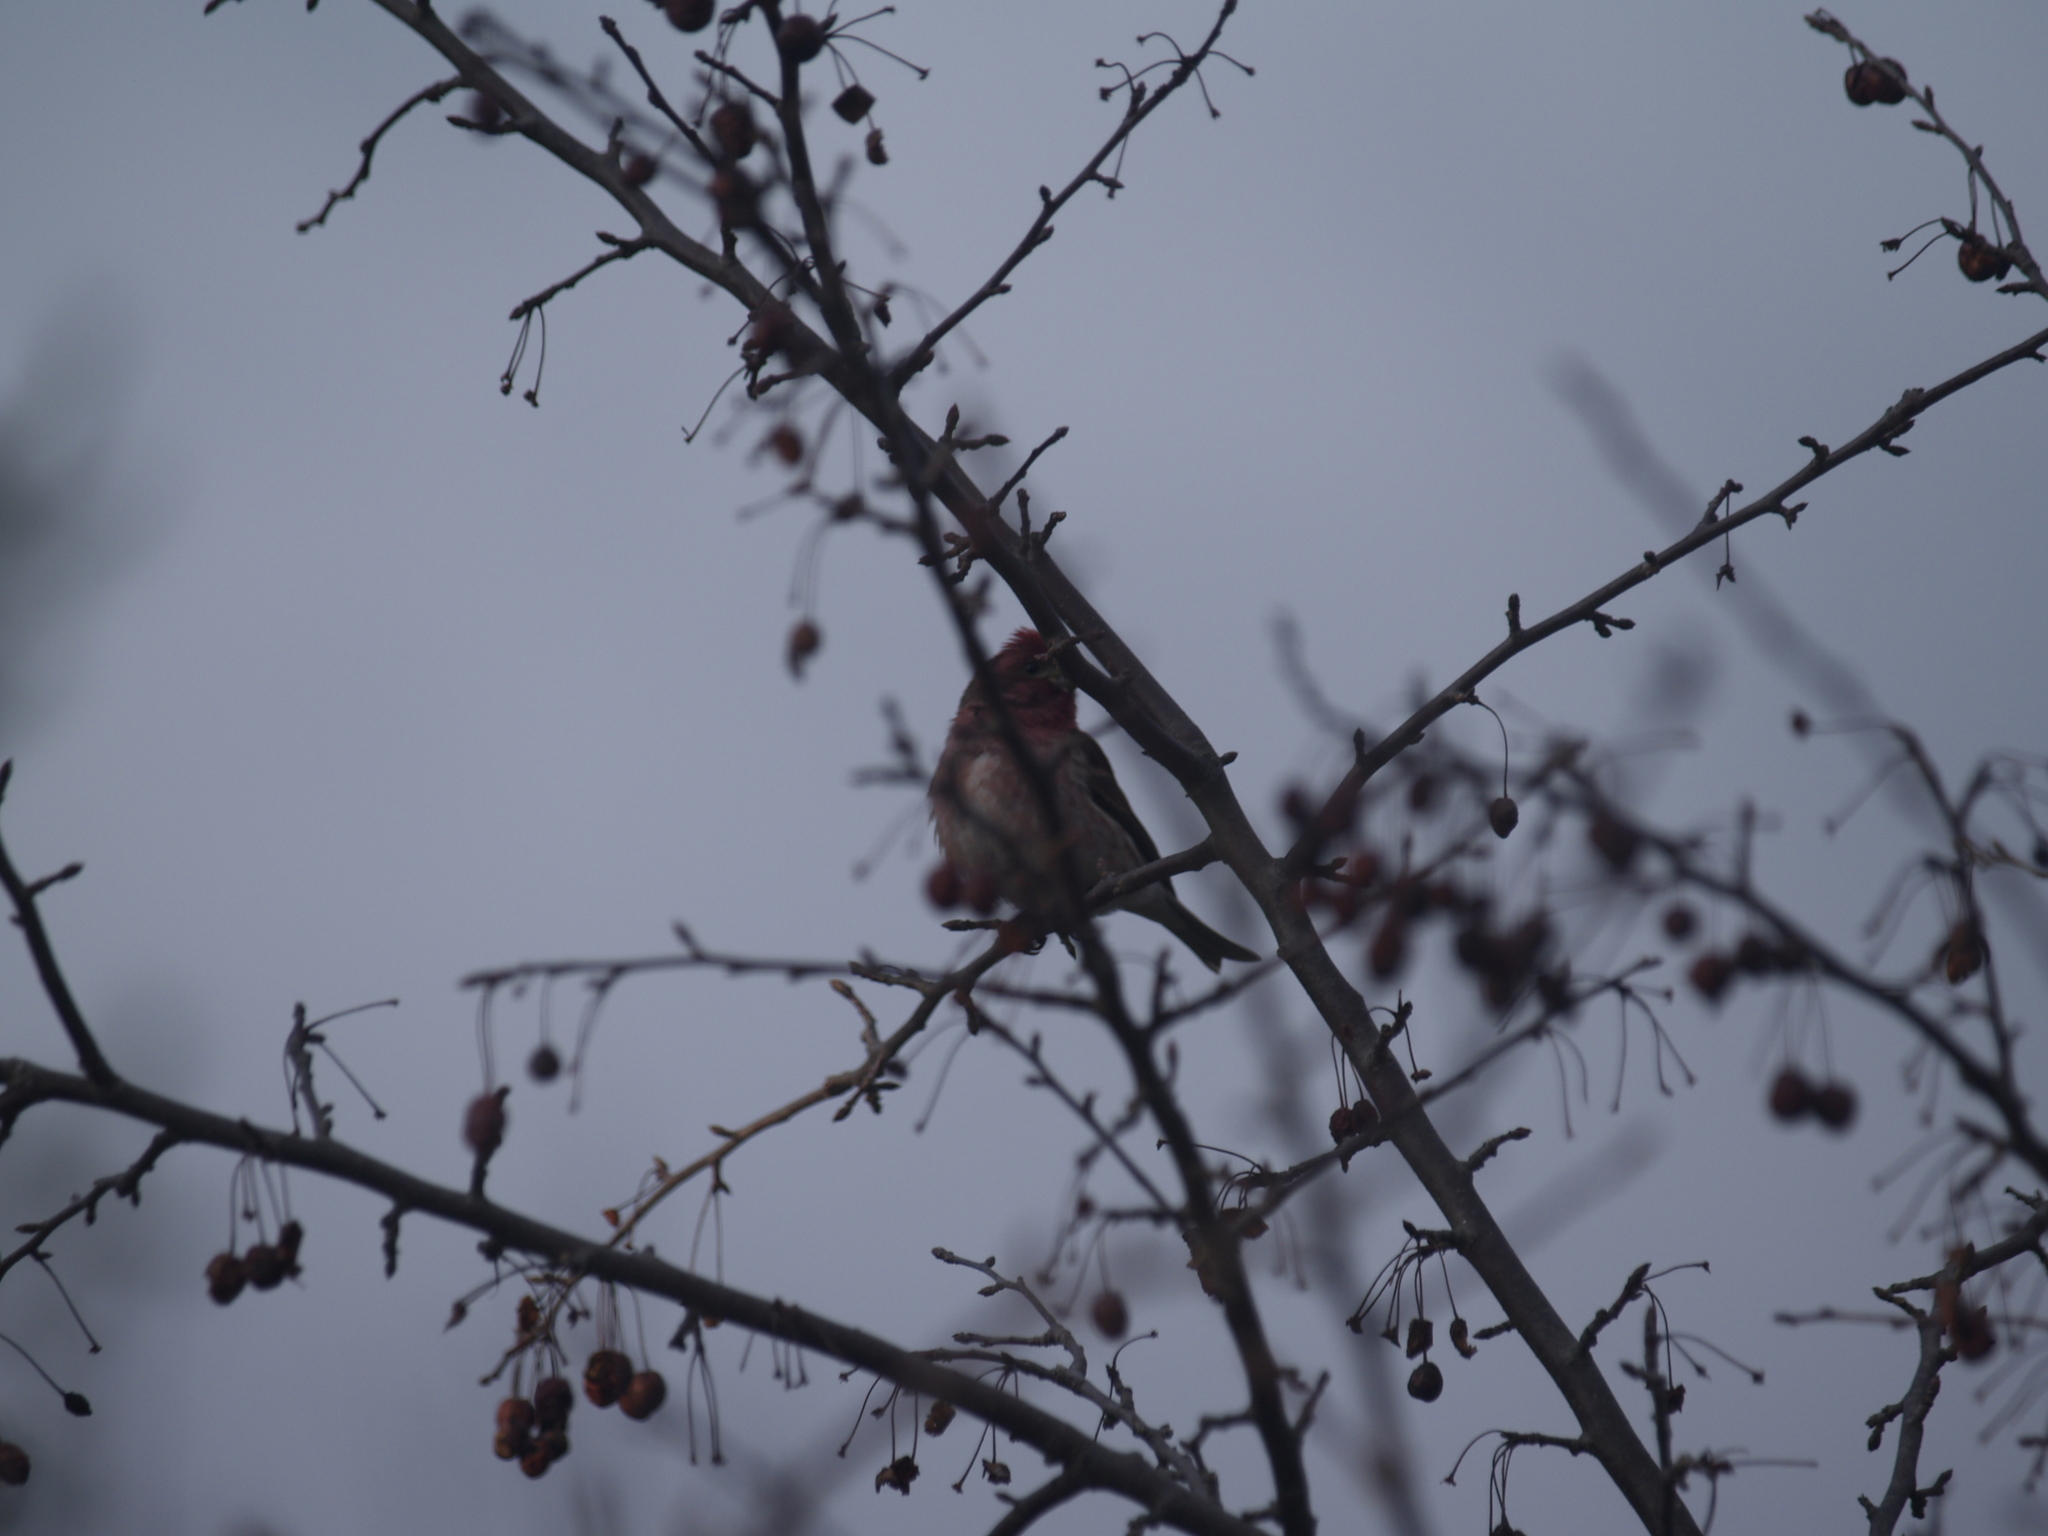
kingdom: Animalia
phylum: Chordata
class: Aves
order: Passeriformes
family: Fringillidae
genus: Haemorhous
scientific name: Haemorhous purpureus
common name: Purple finch
